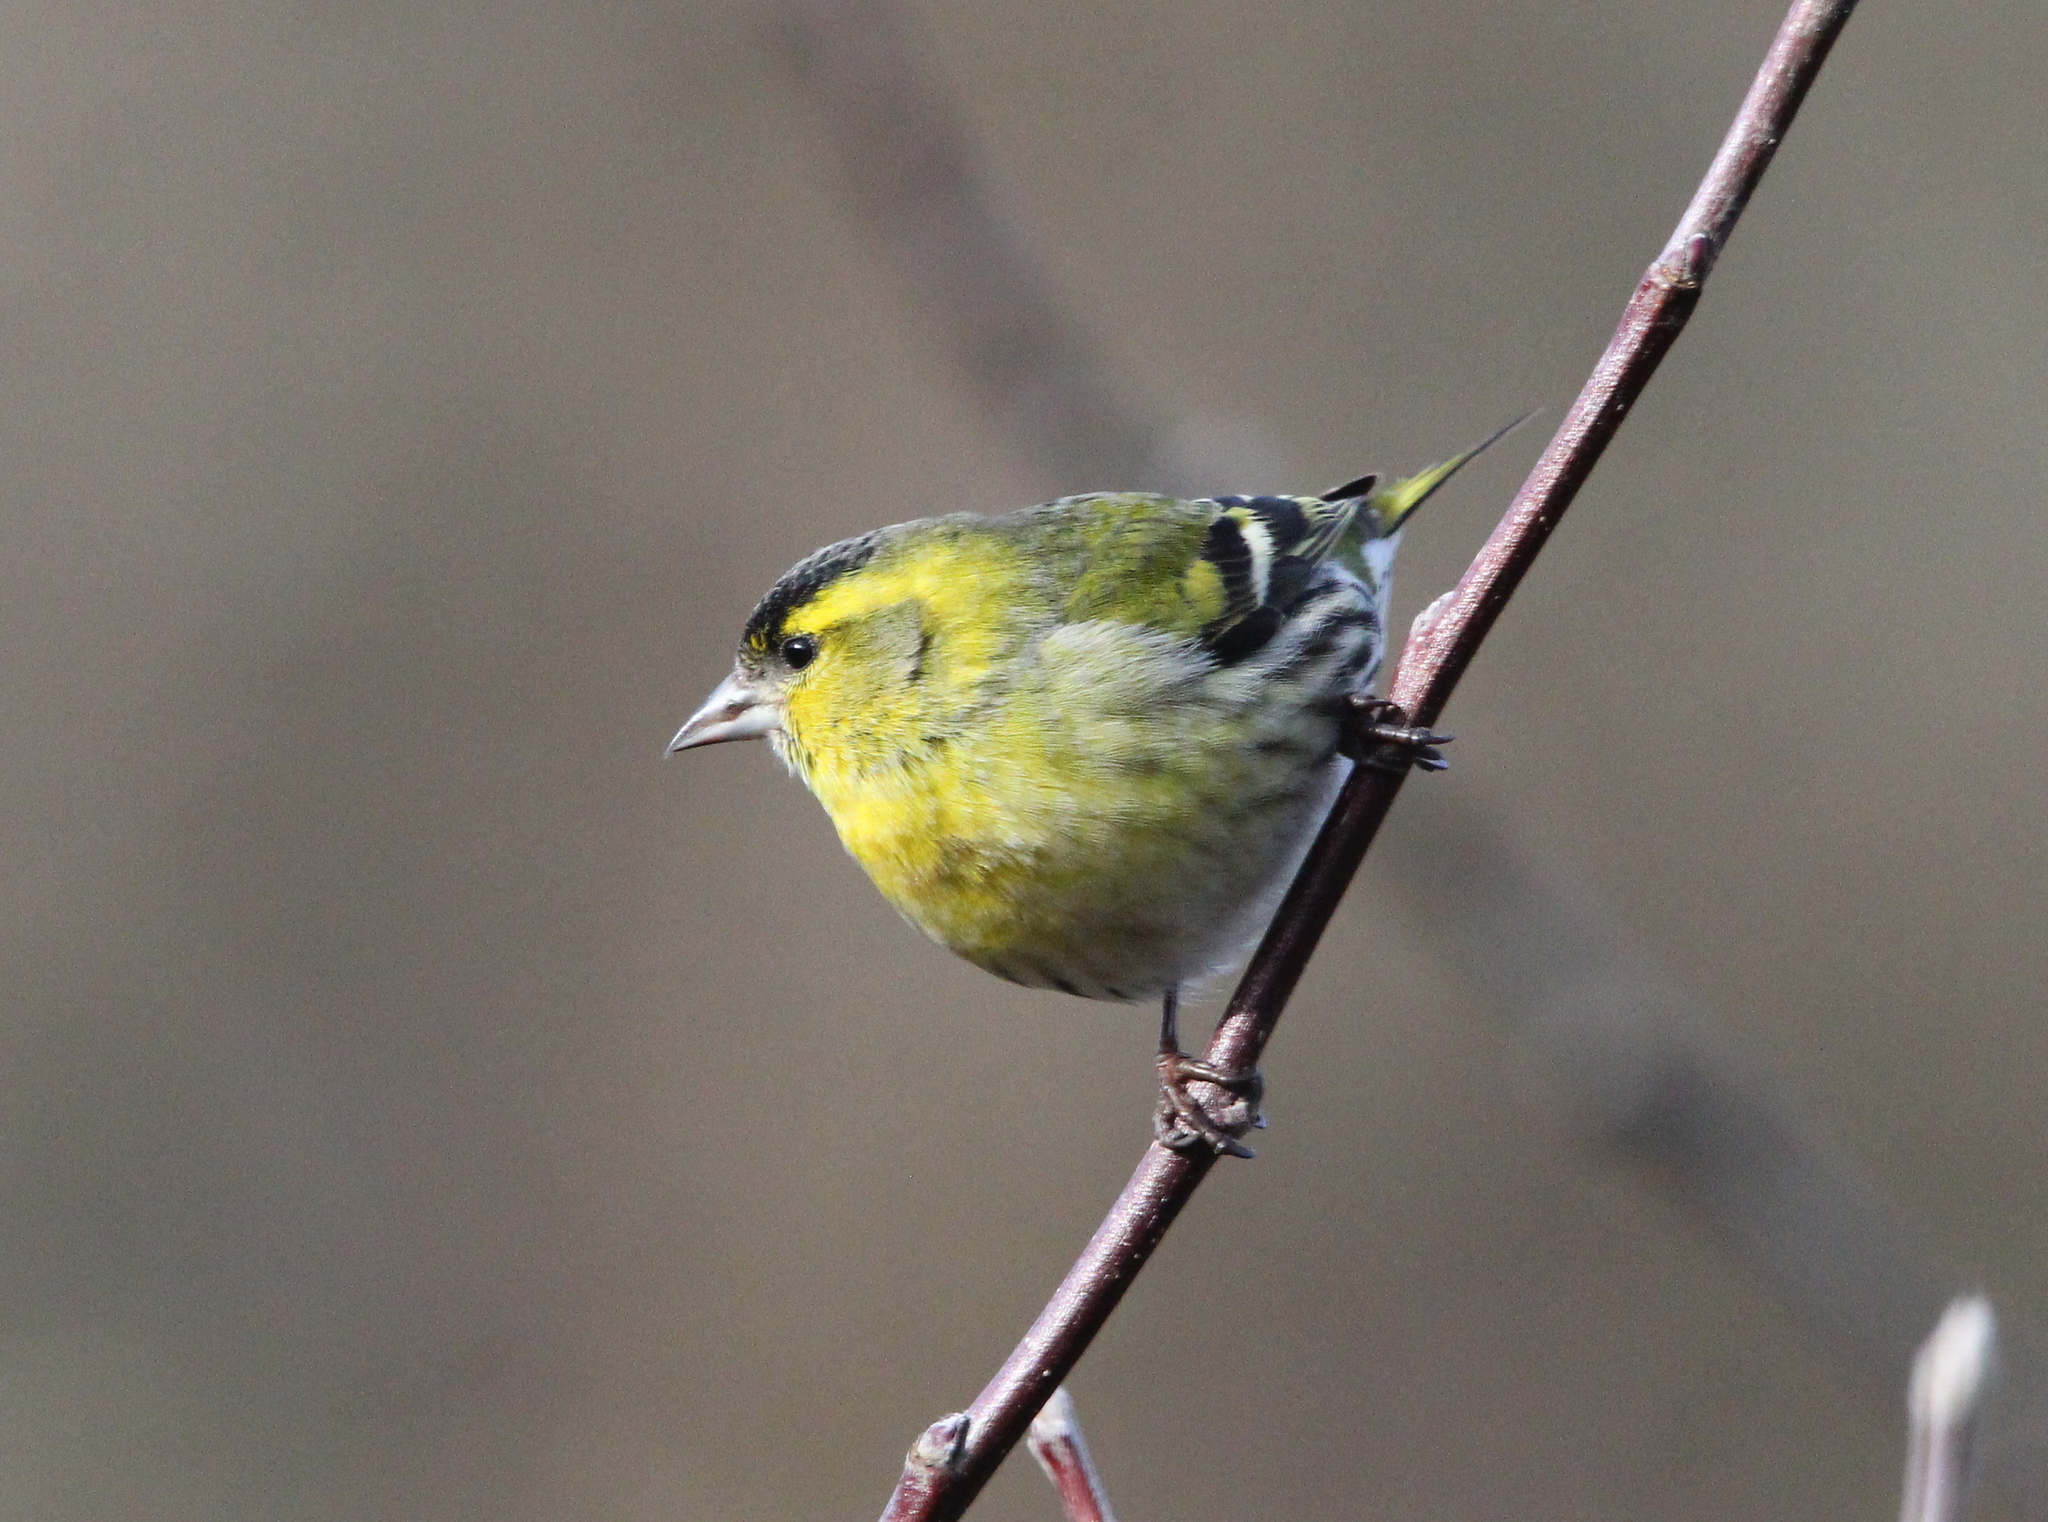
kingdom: Animalia
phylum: Chordata
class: Aves
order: Passeriformes
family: Fringillidae
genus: Spinus
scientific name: Spinus spinus
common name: Eurasian siskin
